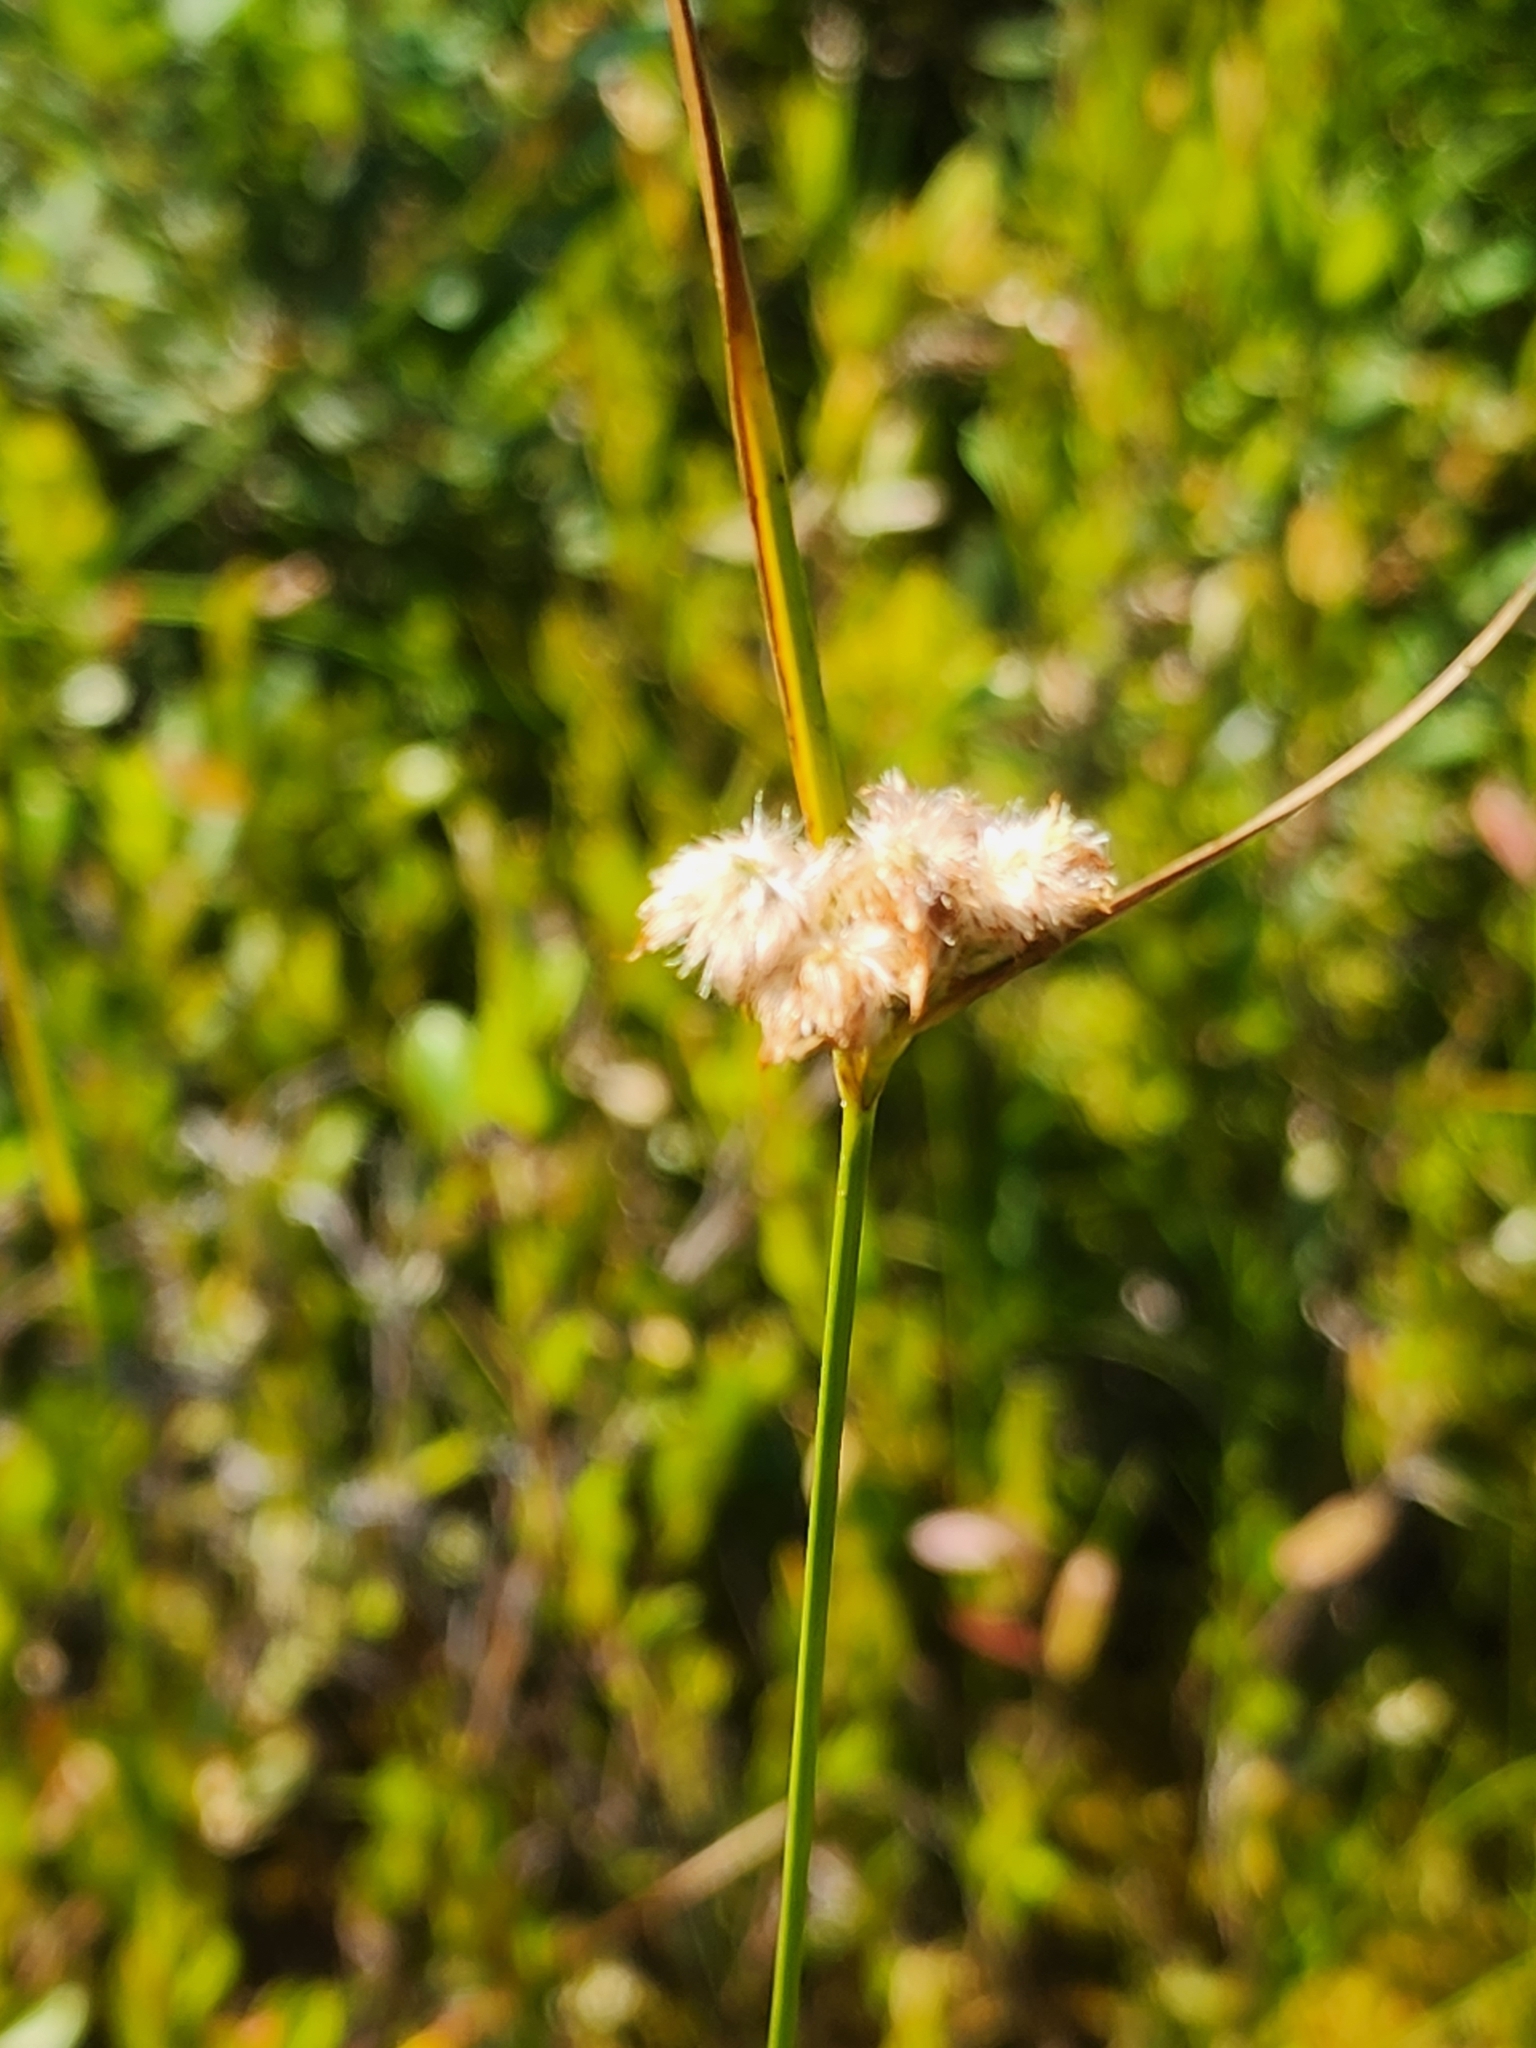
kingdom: Plantae
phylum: Tracheophyta
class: Liliopsida
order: Poales
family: Cyperaceae
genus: Eriophorum
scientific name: Eriophorum virginicum
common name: Tawny cottongrass
